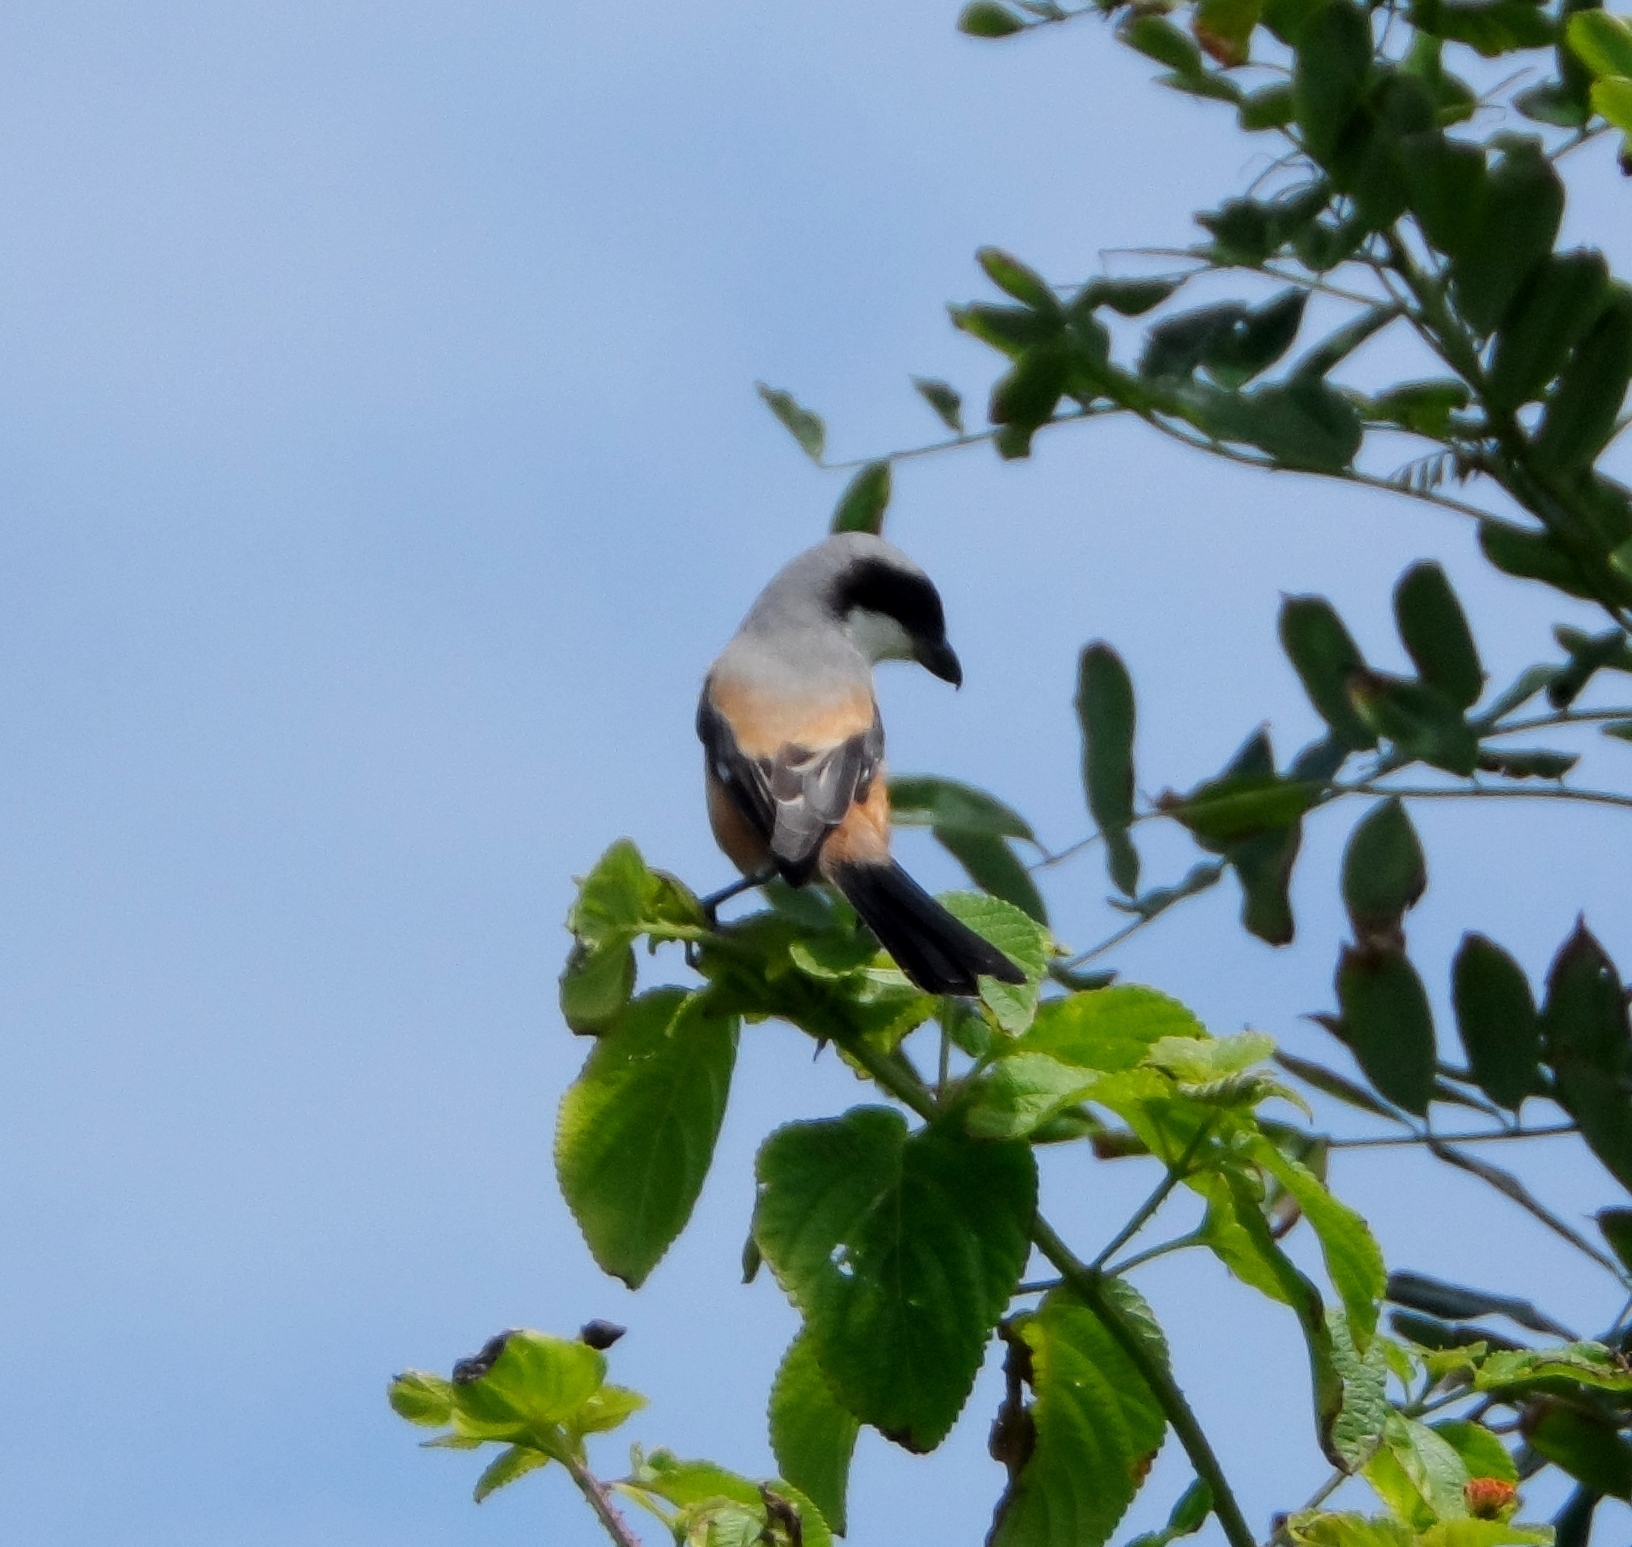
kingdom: Animalia
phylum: Chordata
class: Aves
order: Passeriformes
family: Laniidae
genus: Lanius
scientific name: Lanius schach
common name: Long-tailed shrike
